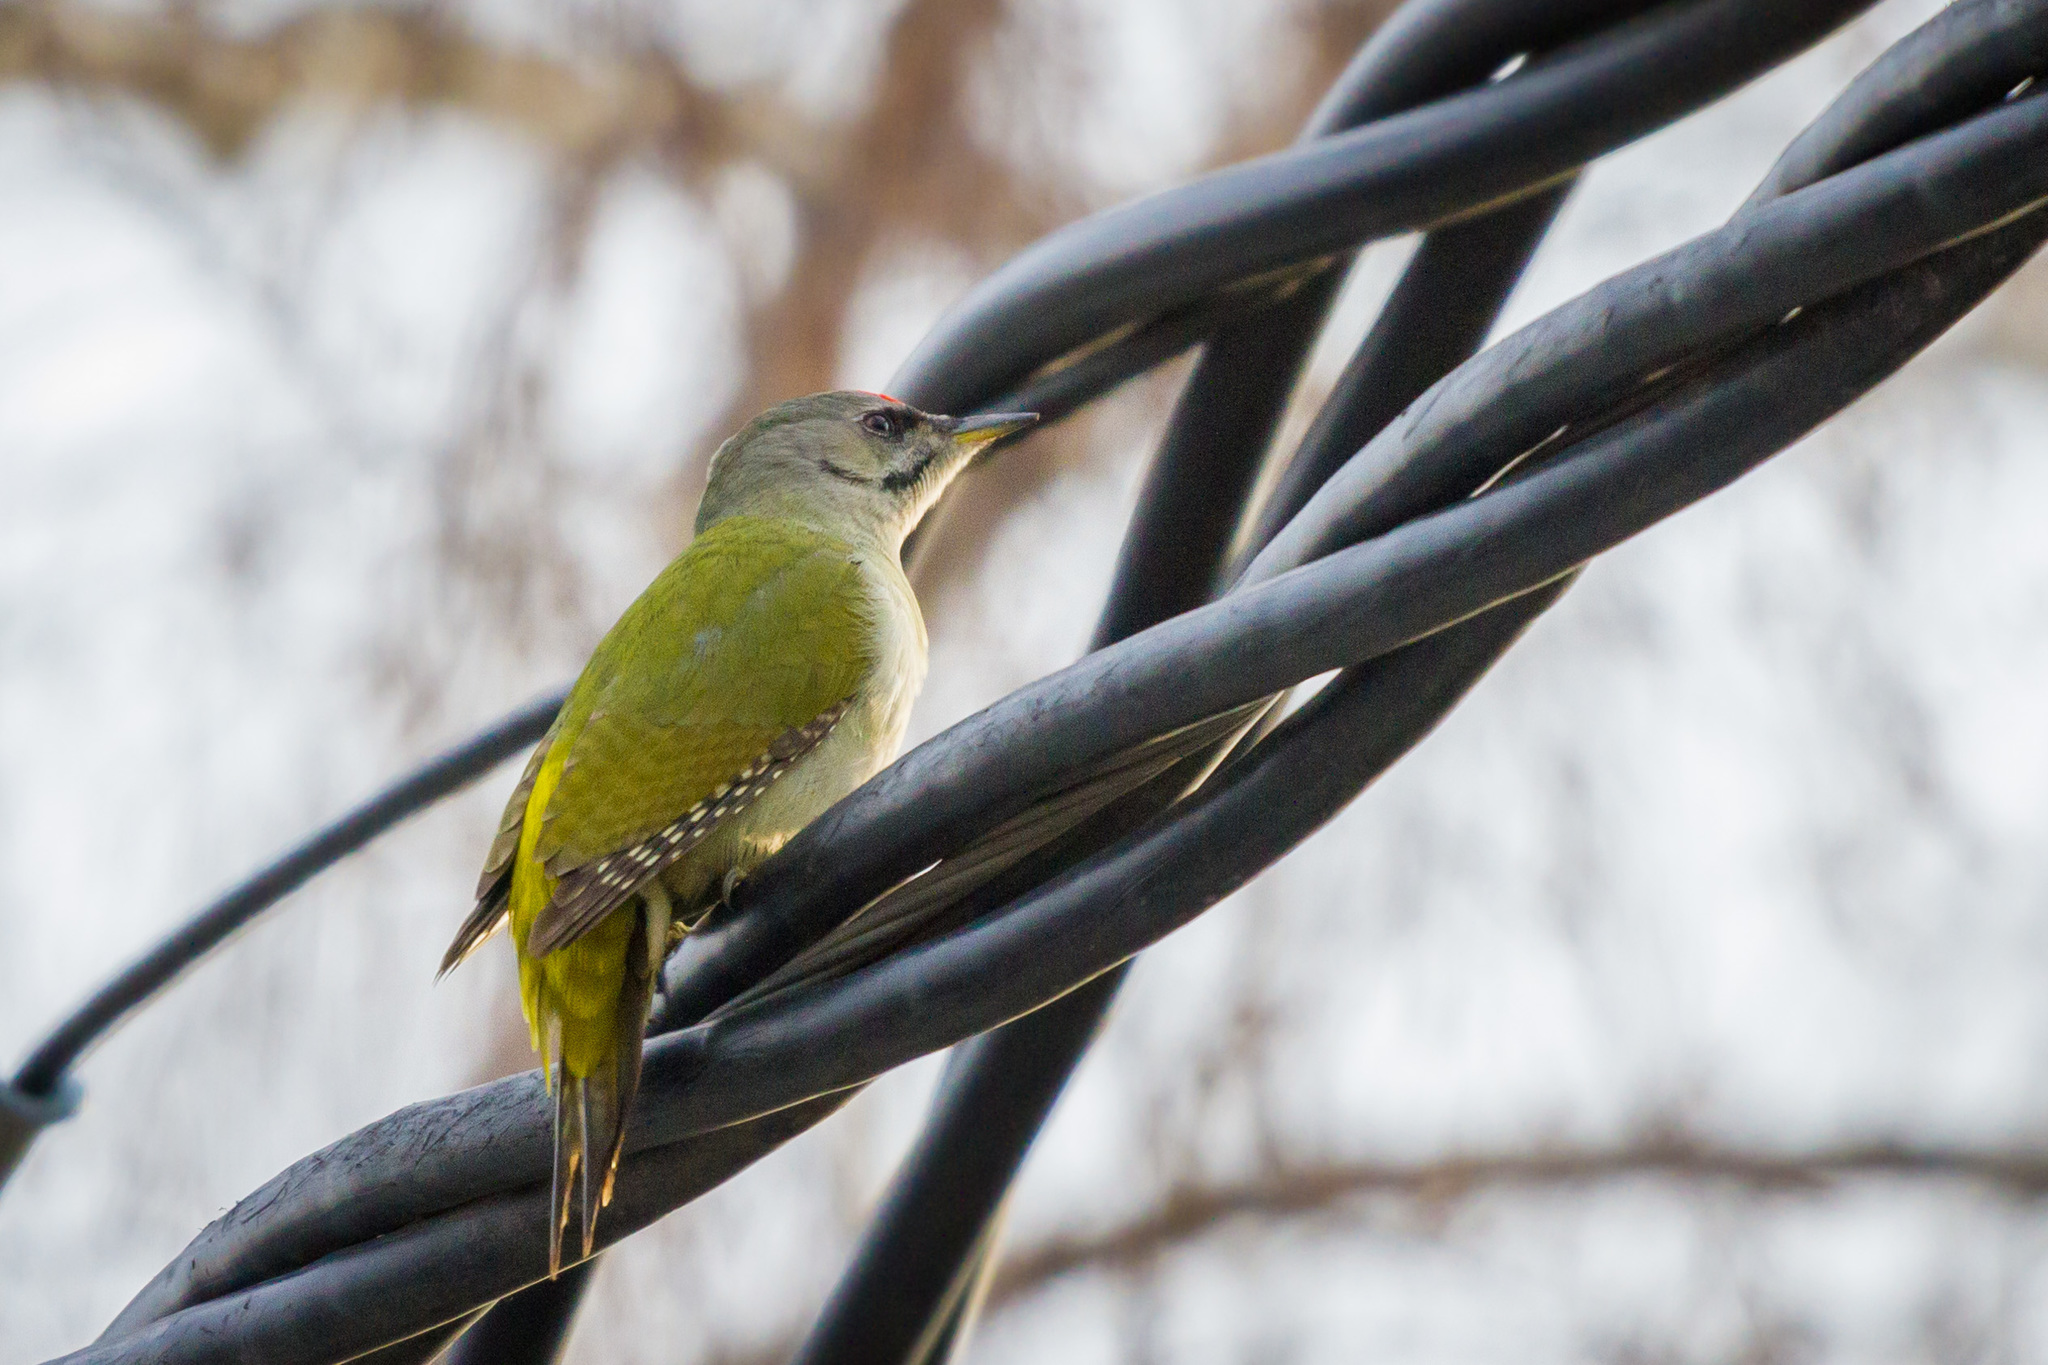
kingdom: Animalia
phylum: Chordata
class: Aves
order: Piciformes
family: Picidae
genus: Picus
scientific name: Picus canus
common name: Grey-headed woodpecker
